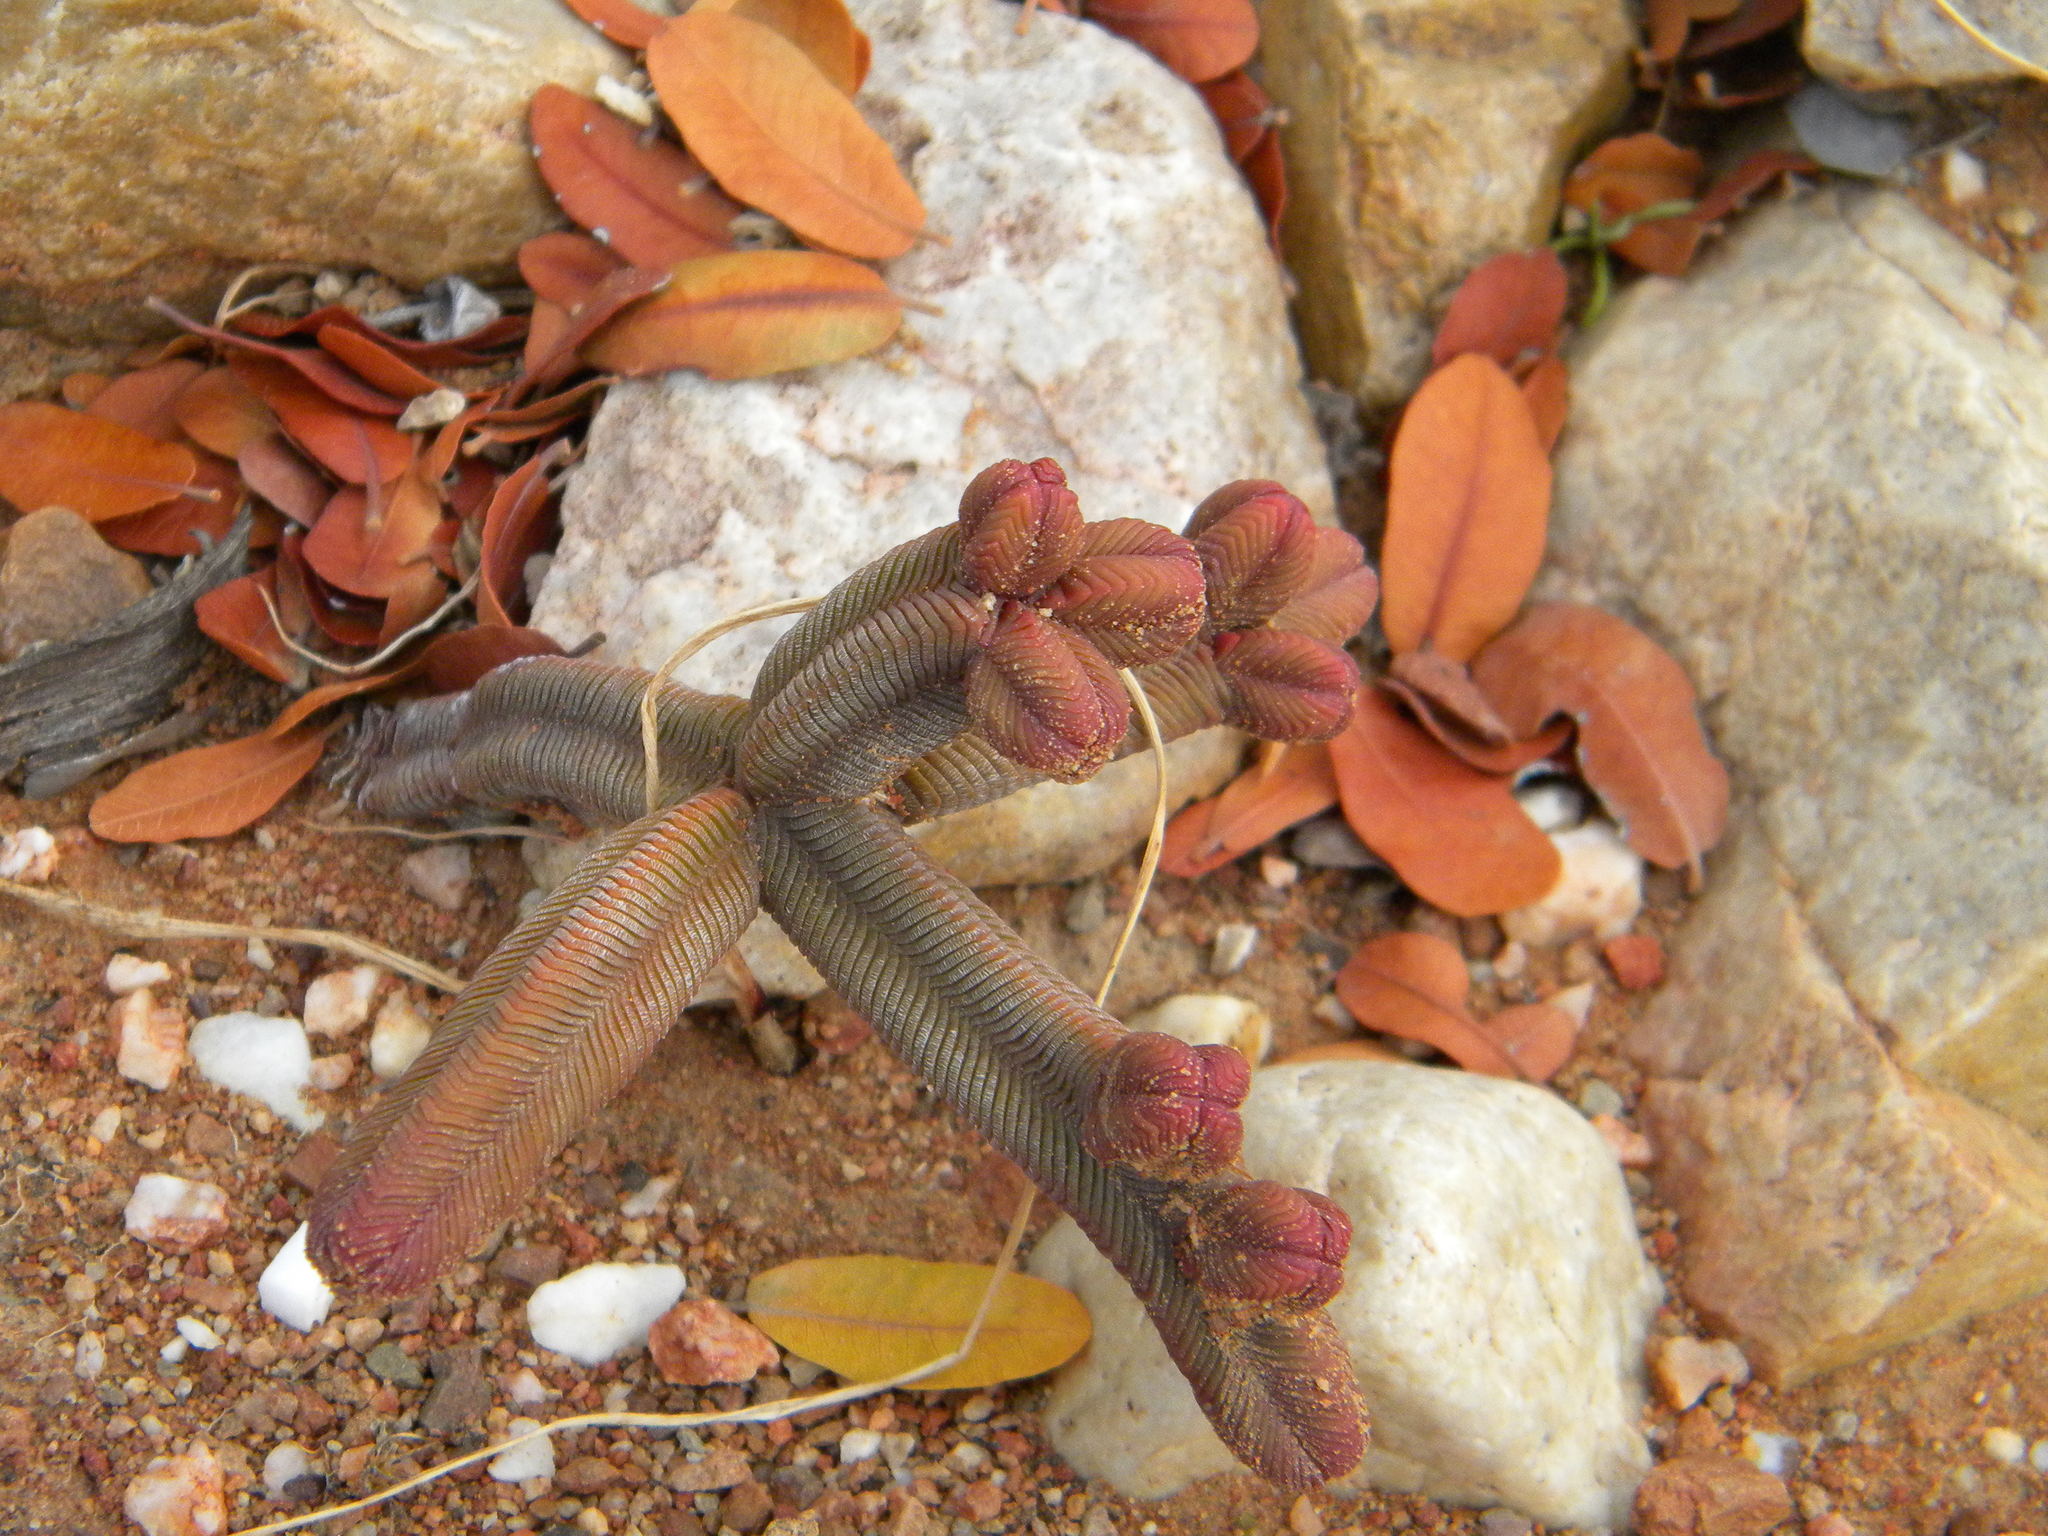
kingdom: Plantae
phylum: Tracheophyta
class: Magnoliopsida
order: Saxifragales
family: Crassulaceae
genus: Crassula
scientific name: Crassula pyramidalis
